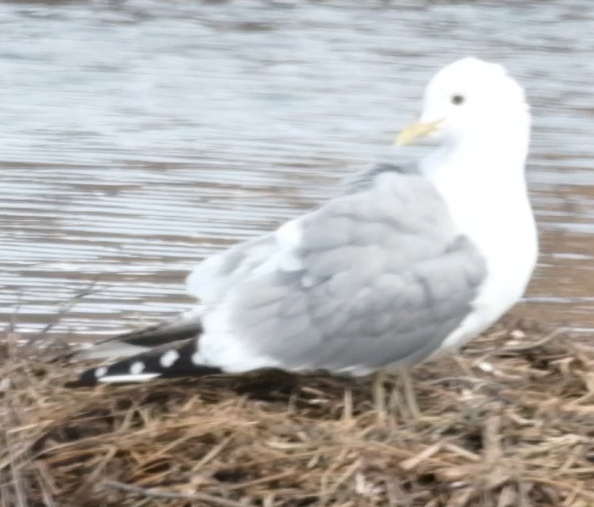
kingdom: Animalia
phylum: Chordata
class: Aves
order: Charadriiformes
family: Laridae
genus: Larus
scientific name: Larus brachyrhynchus
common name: Short-billed gull
